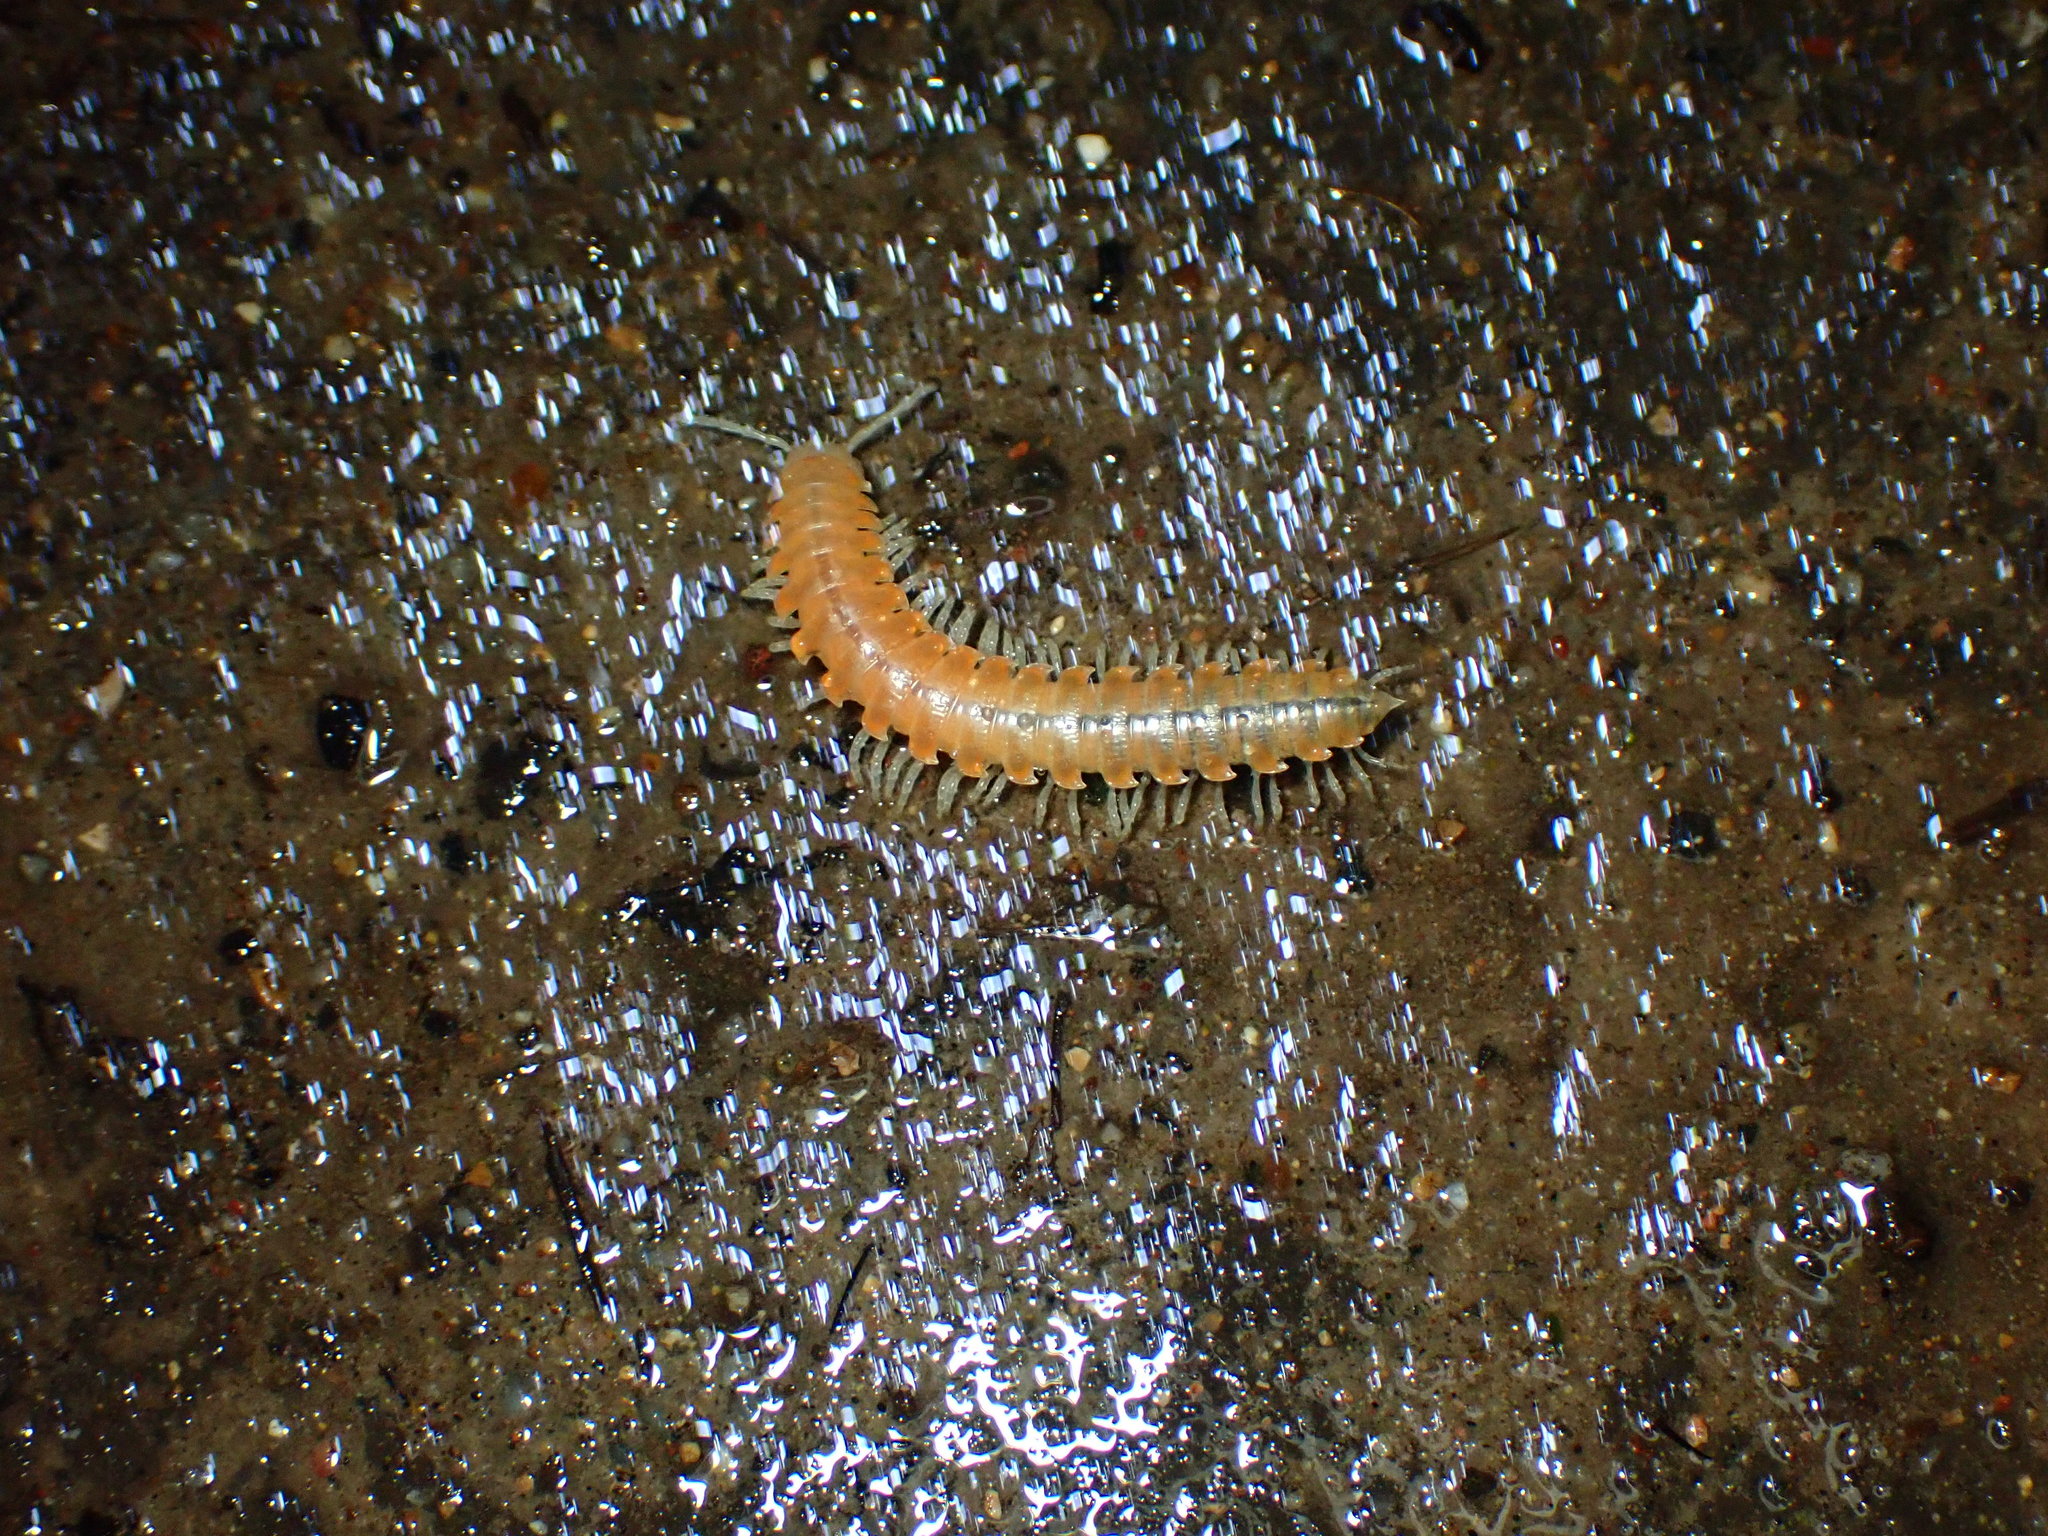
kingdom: Animalia
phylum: Arthropoda
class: Diplopoda
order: Polydesmida
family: Xystodesmidae
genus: Xystocheir
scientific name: Xystocheir dissecta
